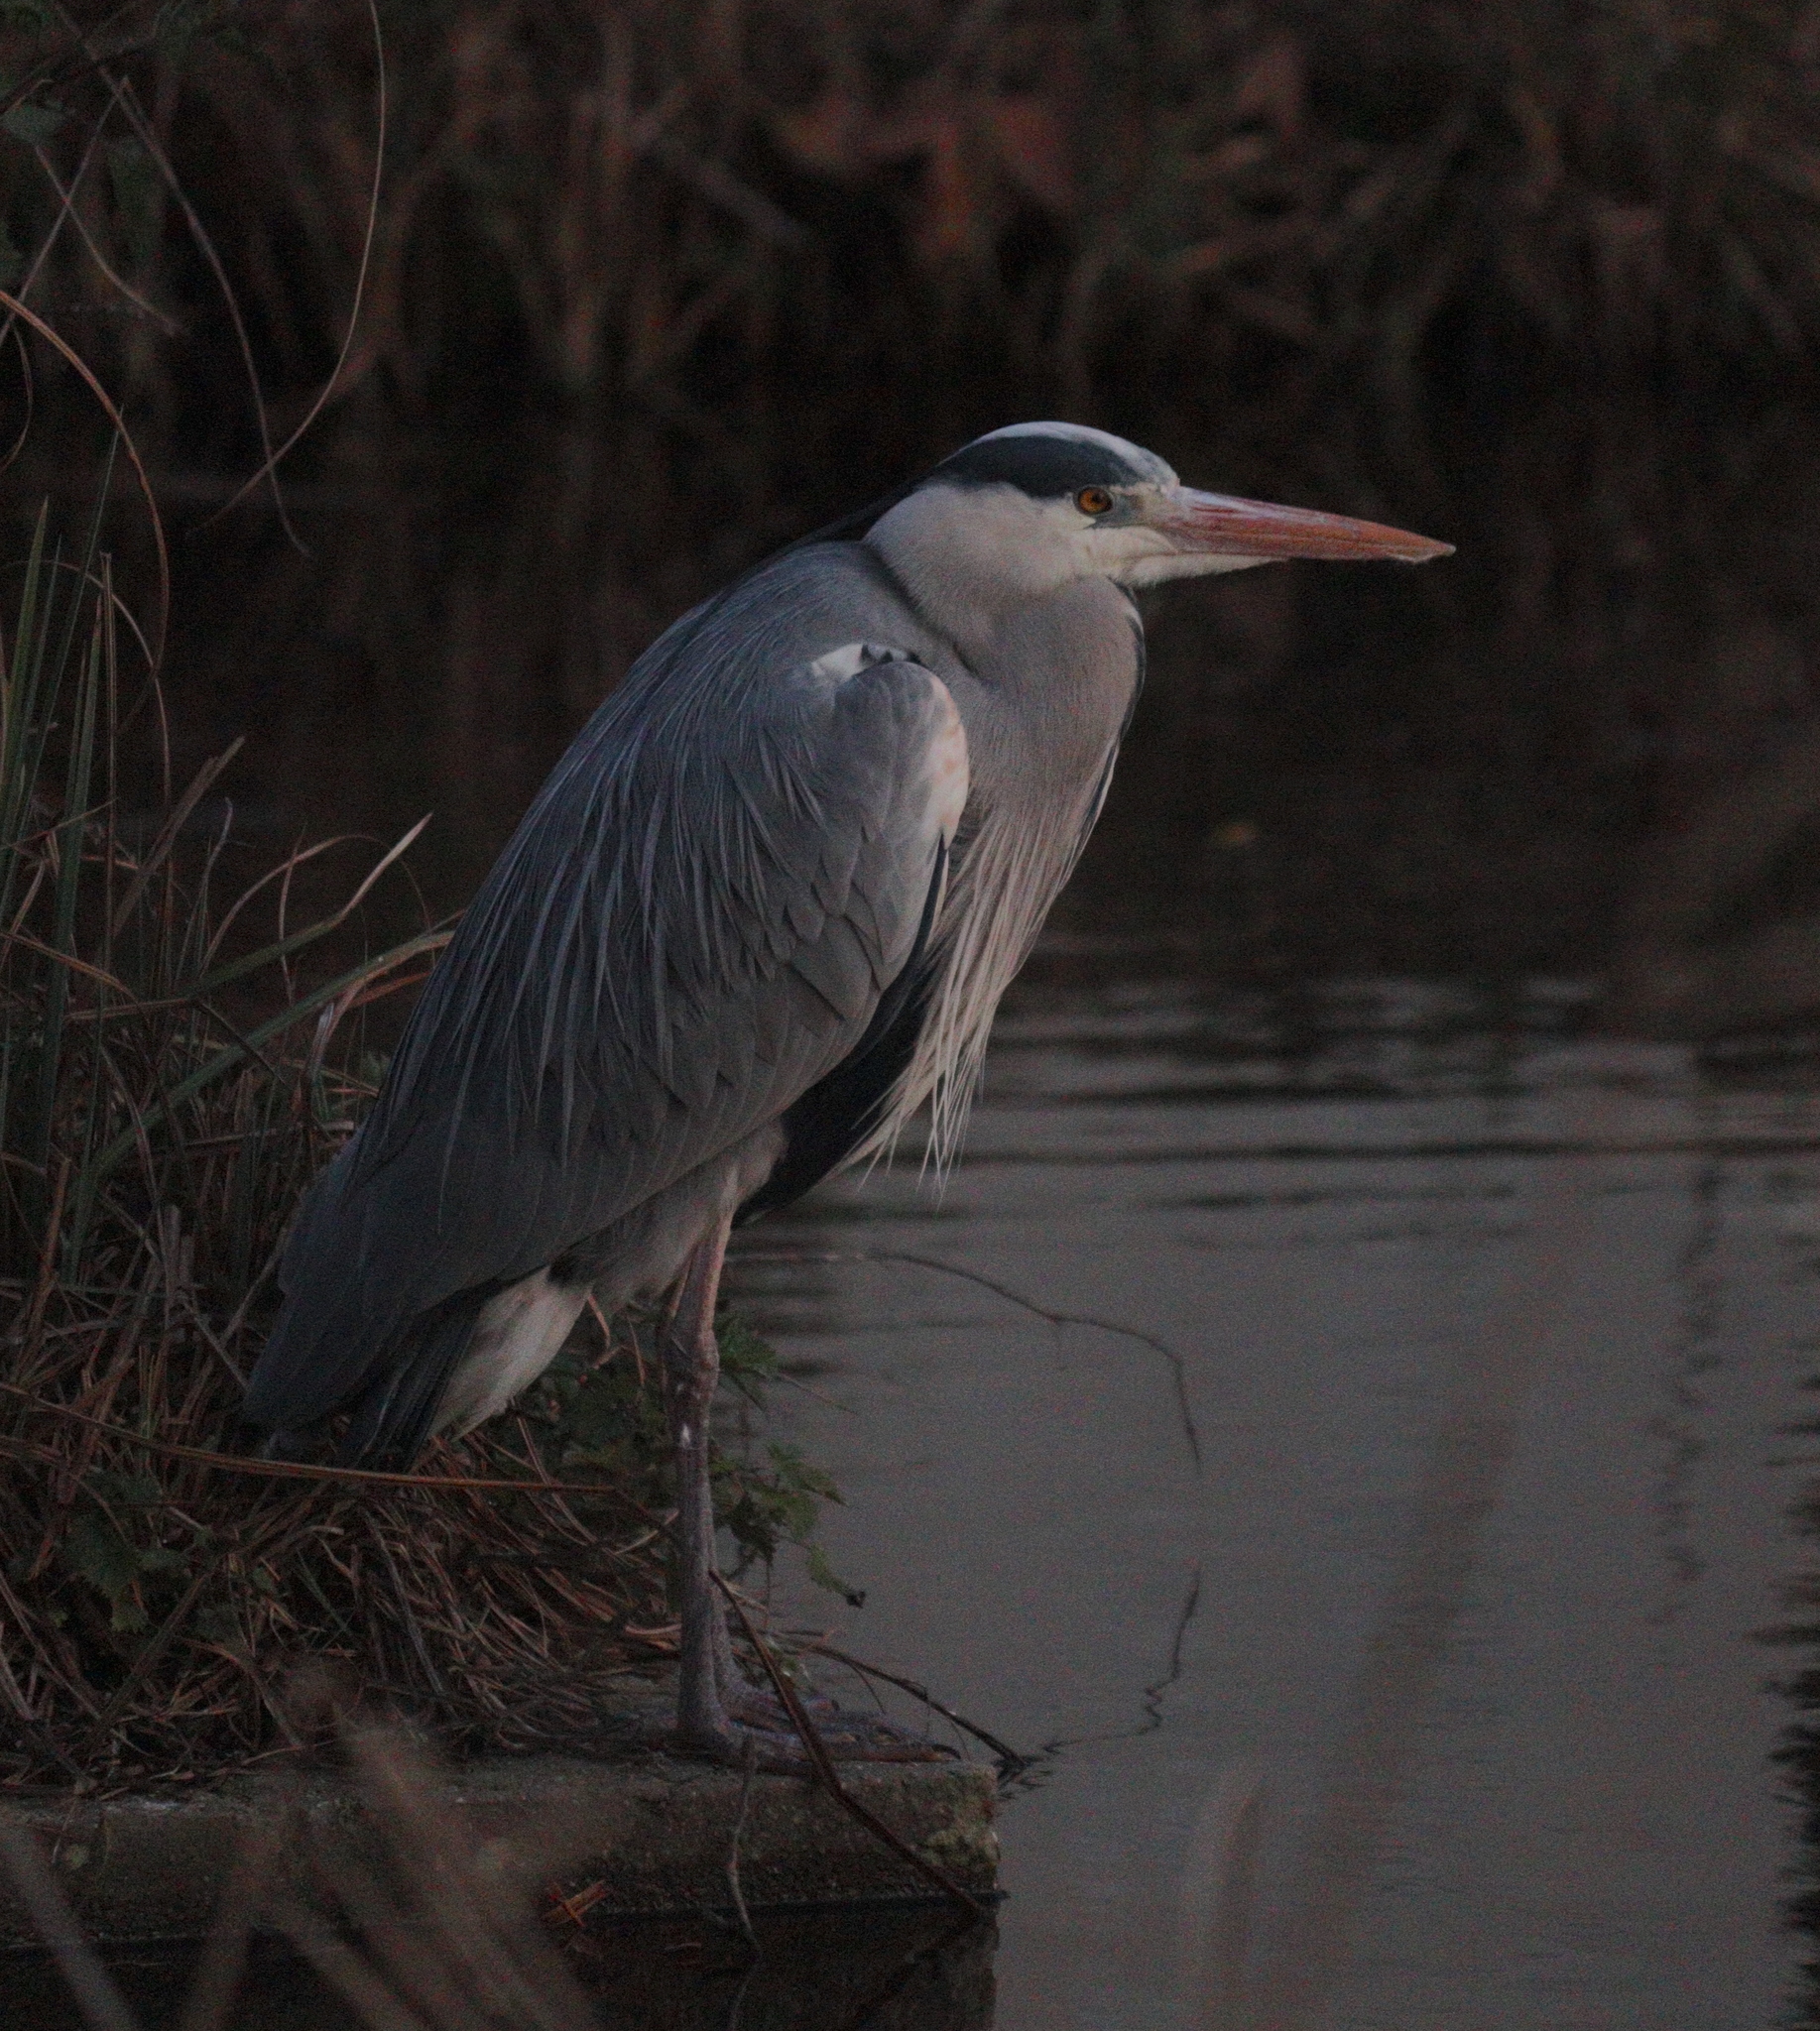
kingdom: Animalia
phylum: Chordata
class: Aves
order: Pelecaniformes
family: Ardeidae
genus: Ardea
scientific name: Ardea cinerea
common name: Grey heron
